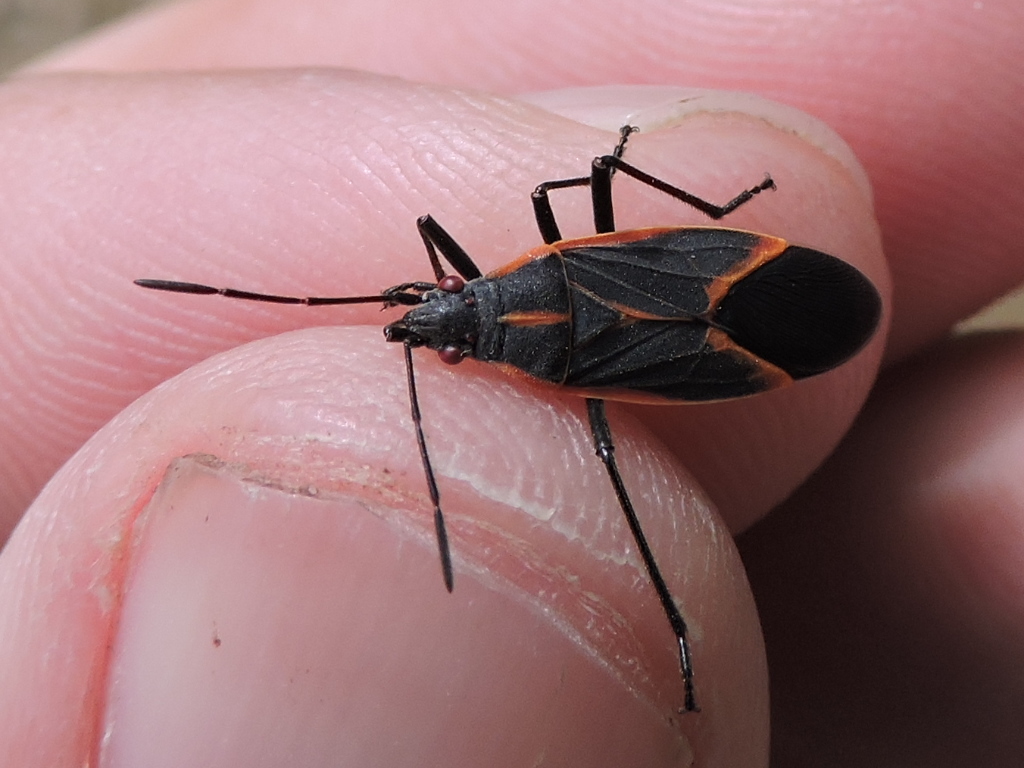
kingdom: Animalia
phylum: Arthropoda
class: Insecta
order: Hemiptera
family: Rhopalidae
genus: Boisea
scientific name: Boisea trivittata
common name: Boxelder bug
